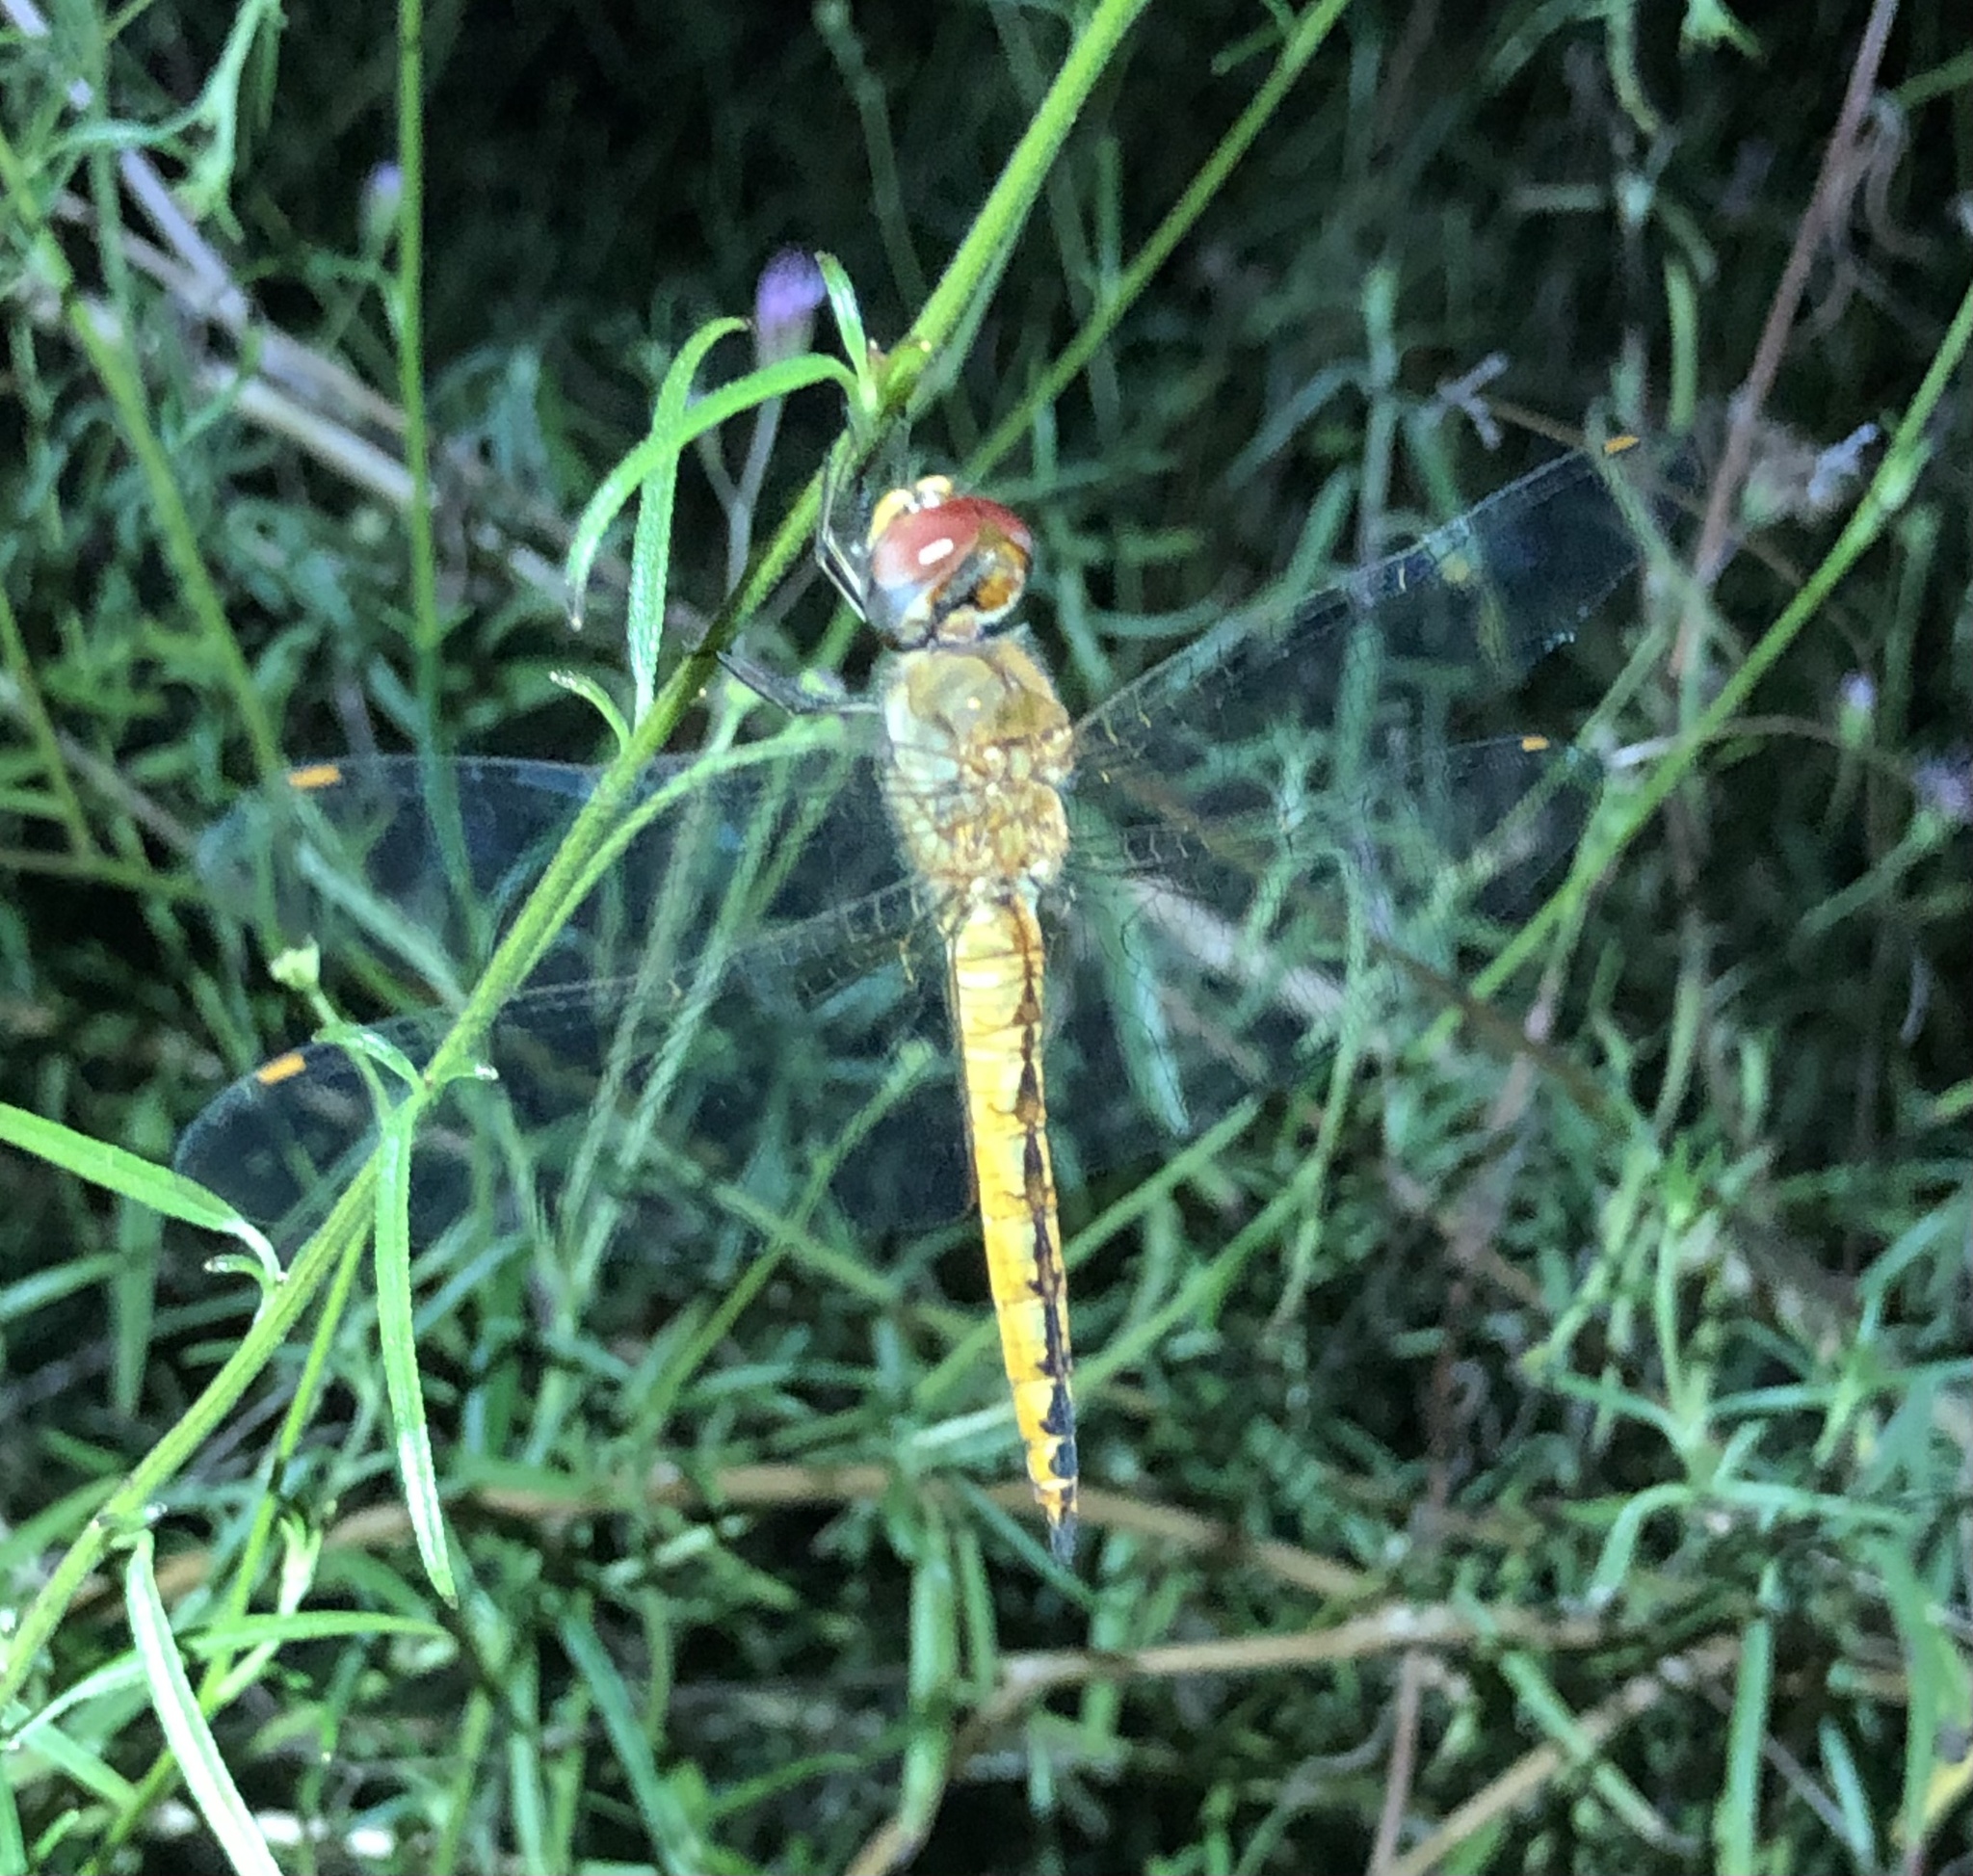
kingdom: Animalia
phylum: Arthropoda
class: Insecta
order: Odonata
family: Libellulidae
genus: Pantala
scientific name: Pantala flavescens
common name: Wandering glider
